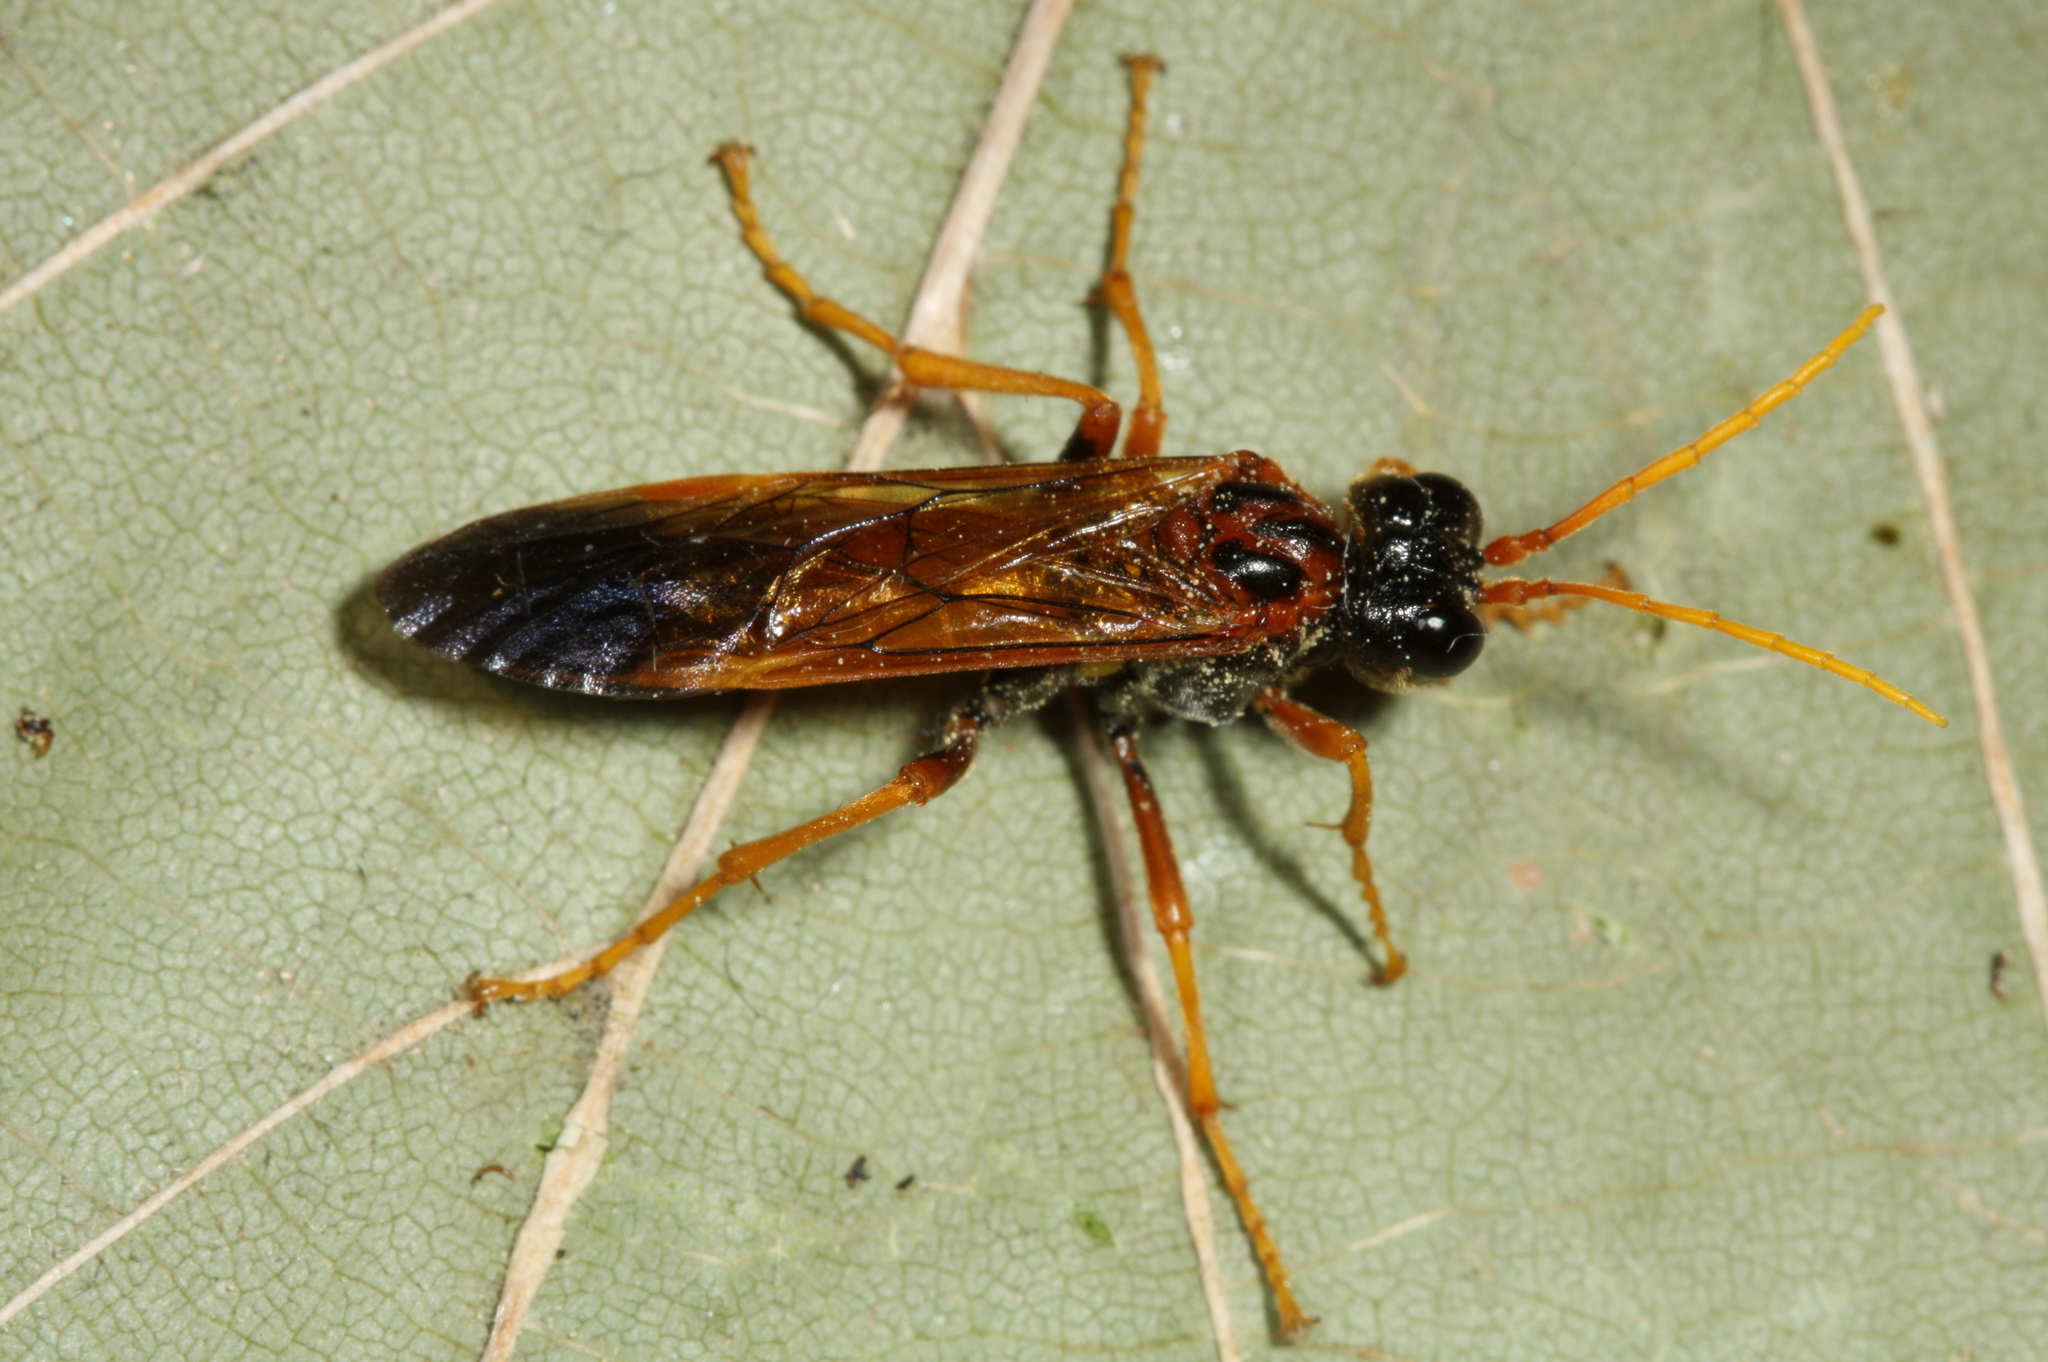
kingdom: Animalia
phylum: Arthropoda
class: Insecta
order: Hymenoptera
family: Tenthredinidae
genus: Tenthredo
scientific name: Tenthredo campestris
